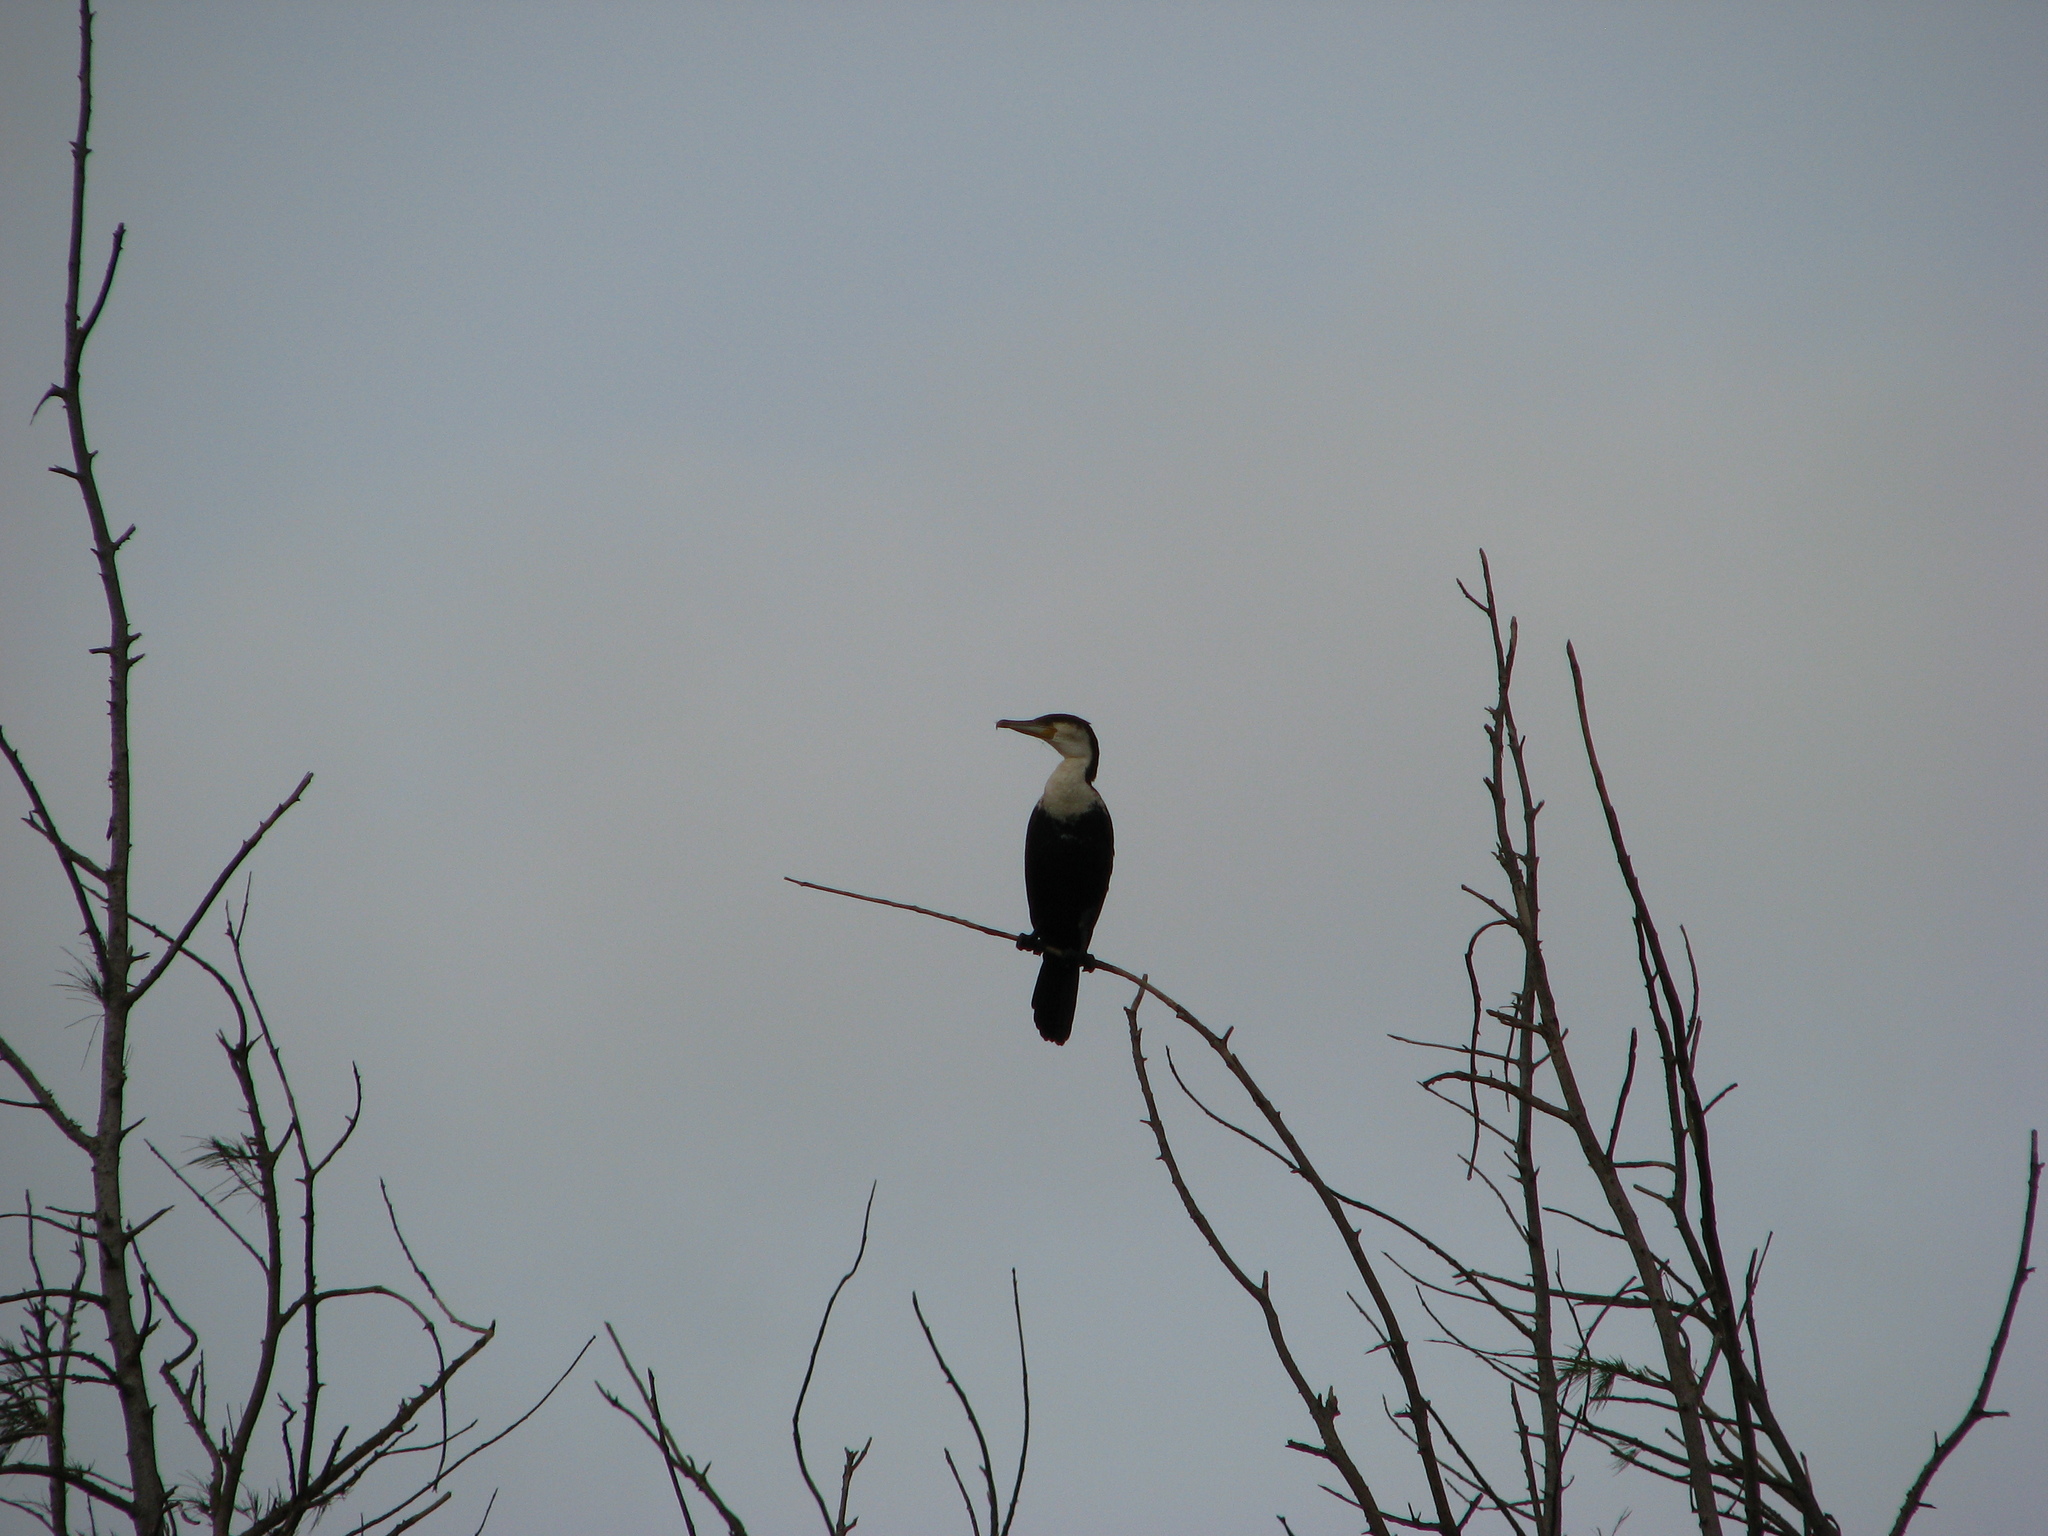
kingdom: Animalia
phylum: Chordata
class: Aves
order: Suliformes
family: Phalacrocoracidae
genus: Phalacrocorax
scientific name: Phalacrocorax carbo
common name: Great cormorant
